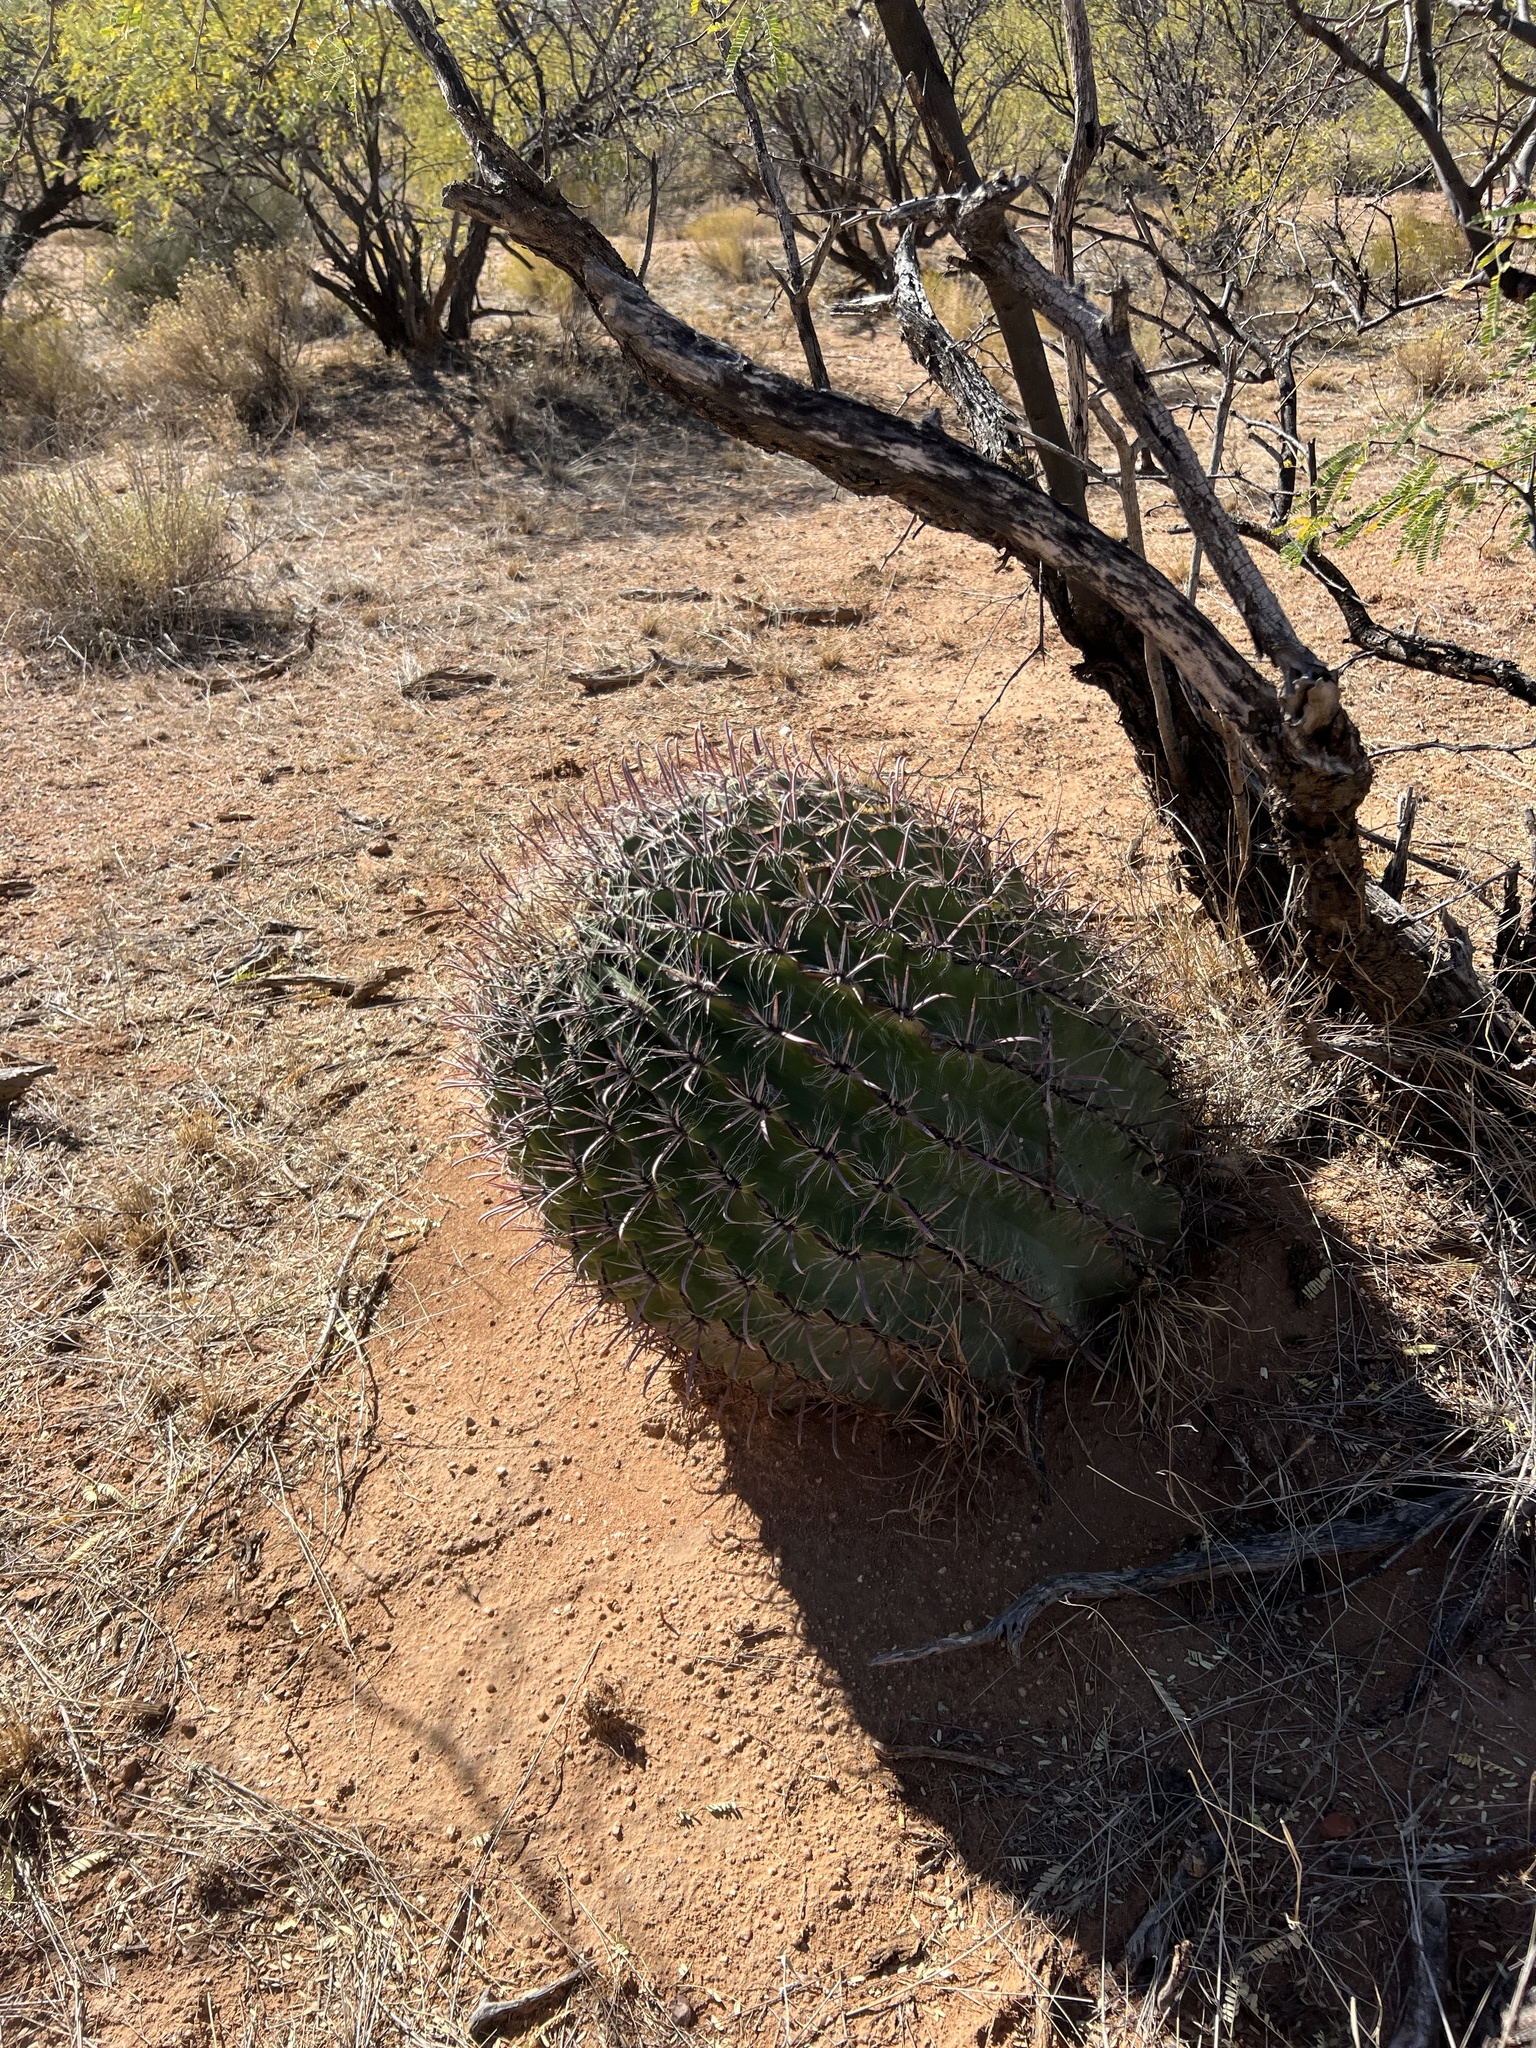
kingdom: Plantae
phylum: Tracheophyta
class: Magnoliopsida
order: Caryophyllales
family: Cactaceae
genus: Ferocactus
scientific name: Ferocactus wislizeni
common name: Candy barrel cactus
